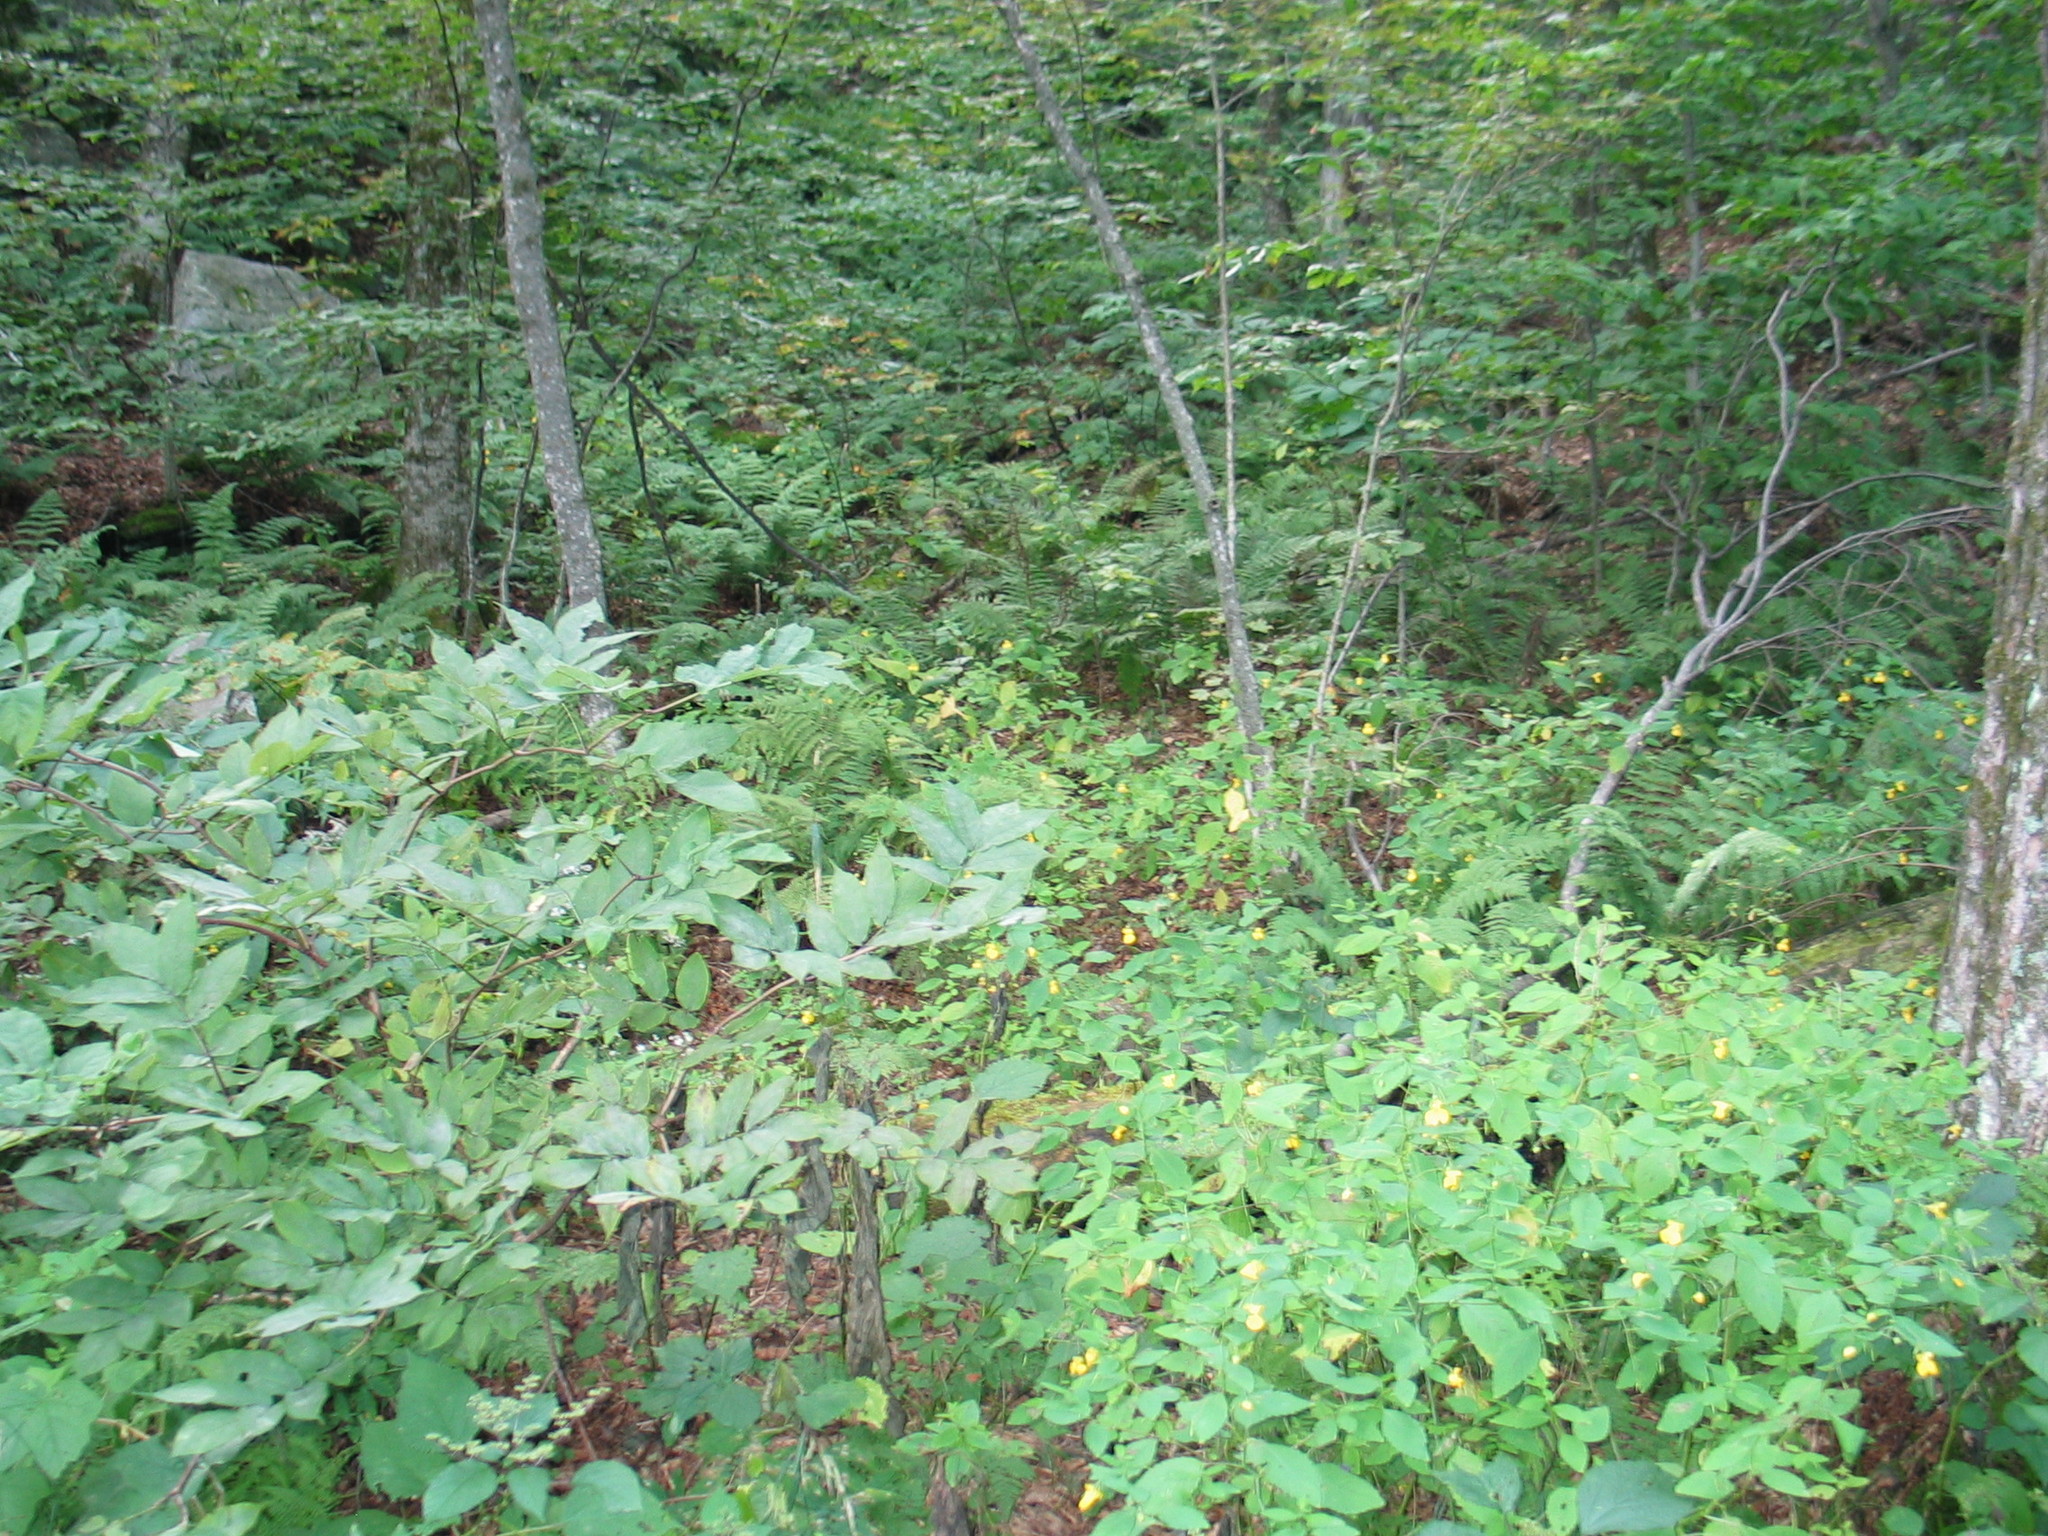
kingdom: Plantae
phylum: Tracheophyta
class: Magnoliopsida
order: Ericales
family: Balsaminaceae
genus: Impatiens
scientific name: Impatiens pallida
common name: Pale snapweed
